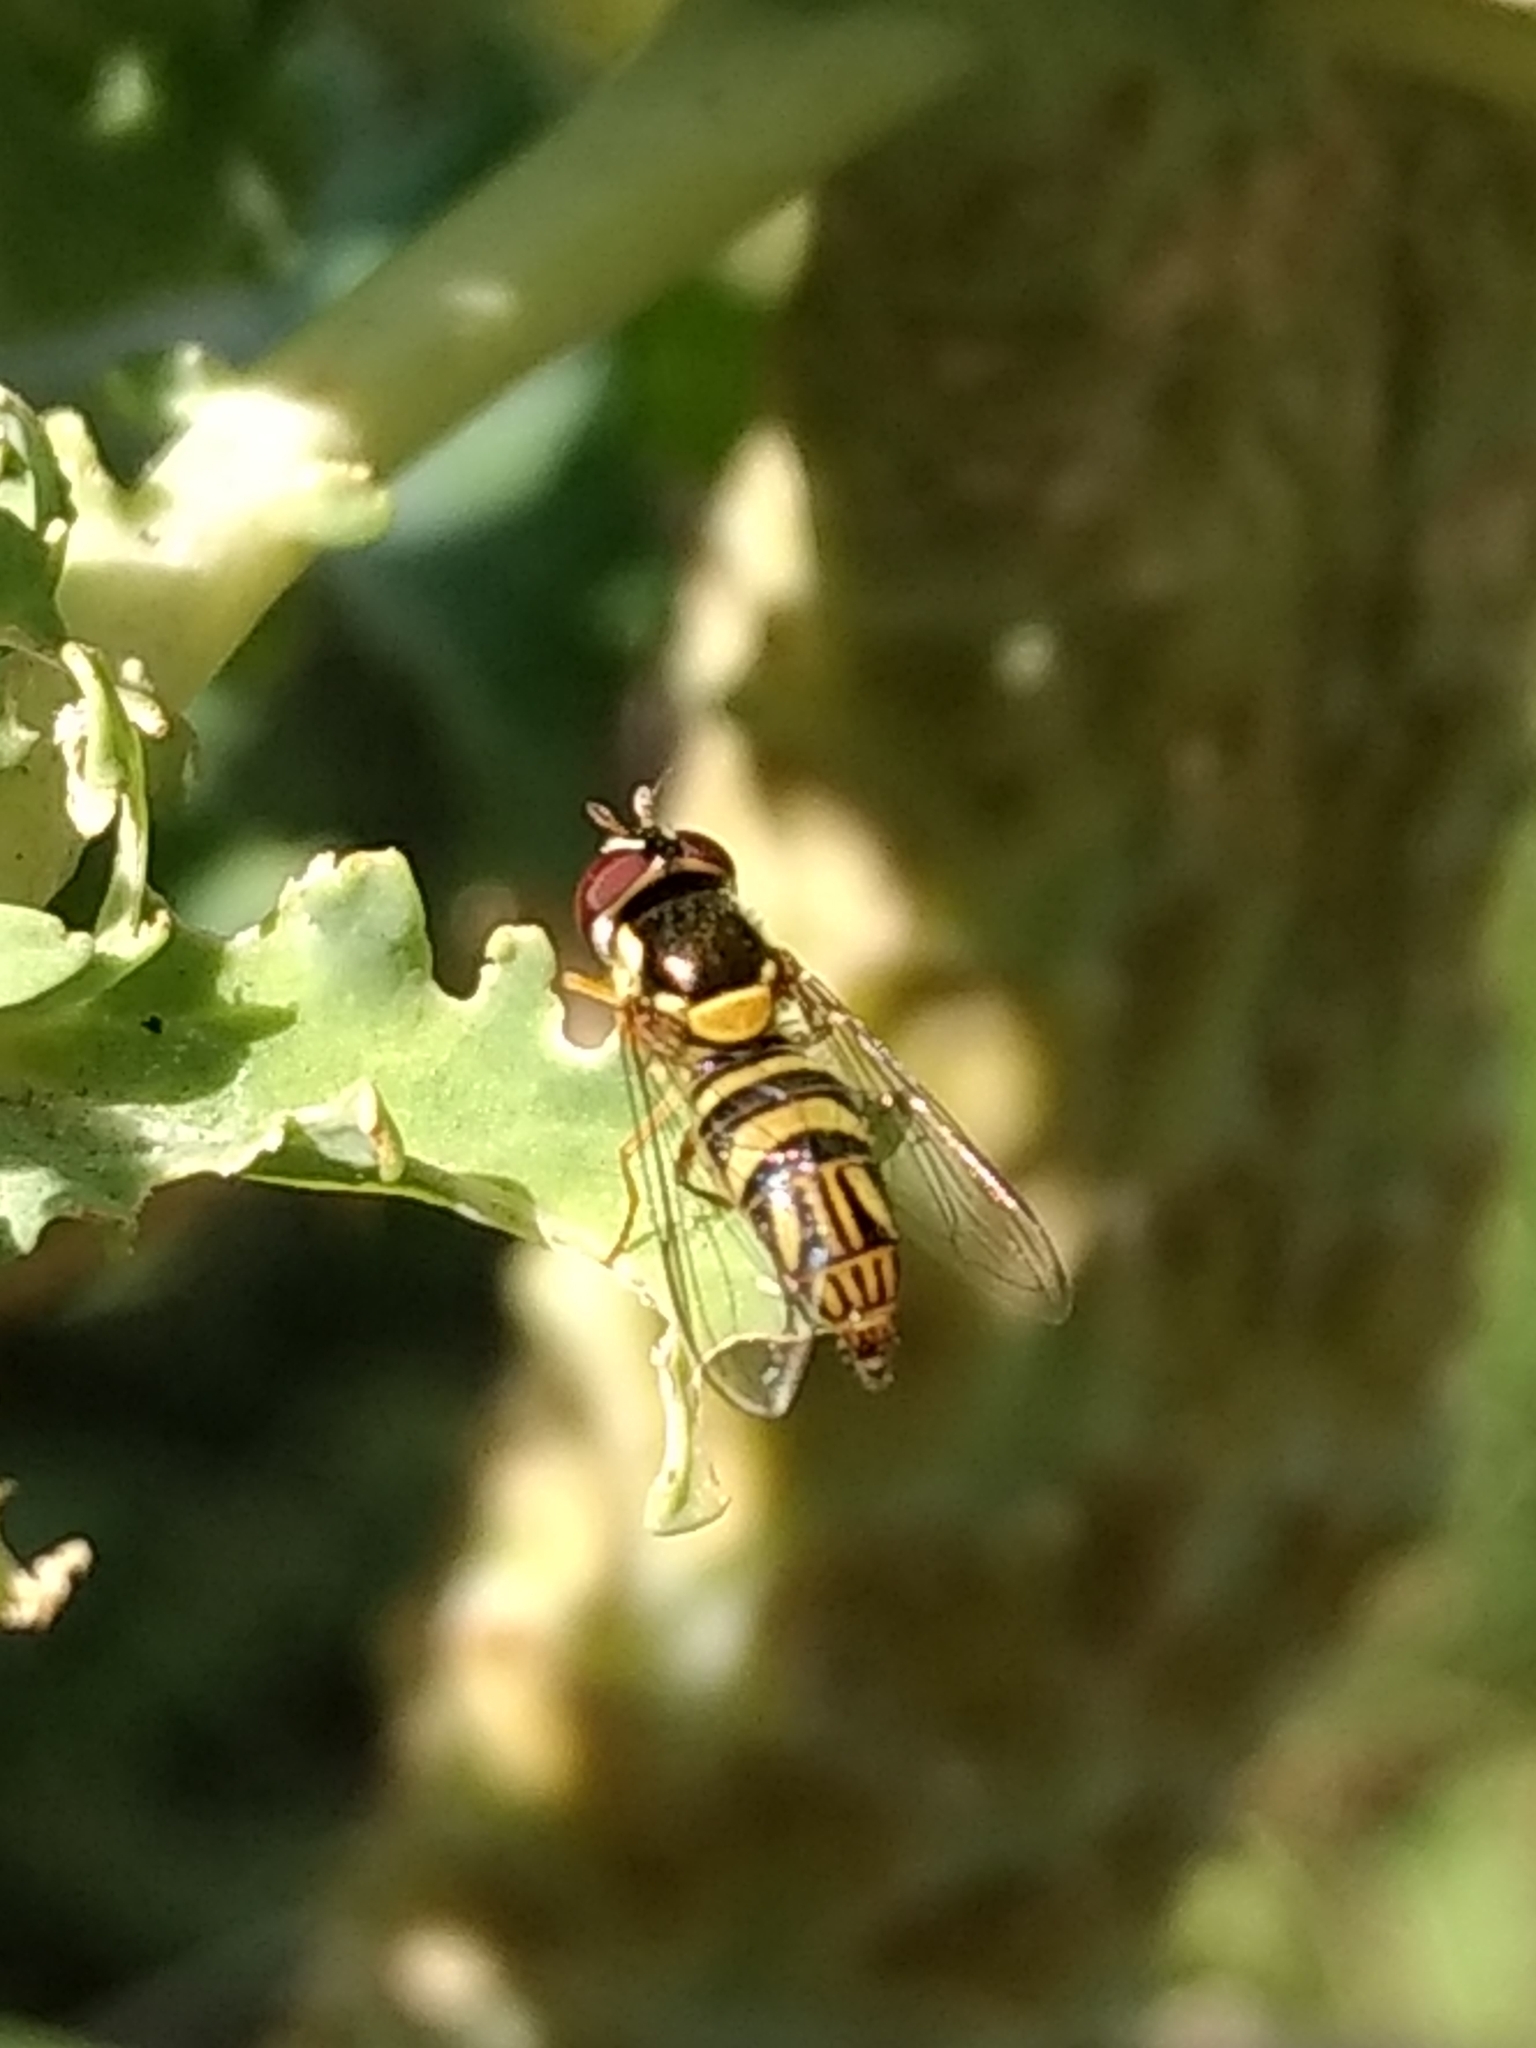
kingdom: Animalia
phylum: Arthropoda
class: Insecta
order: Diptera
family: Syrphidae
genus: Allograpta
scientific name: Allograpta obliqua
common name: Common oblique syrphid
